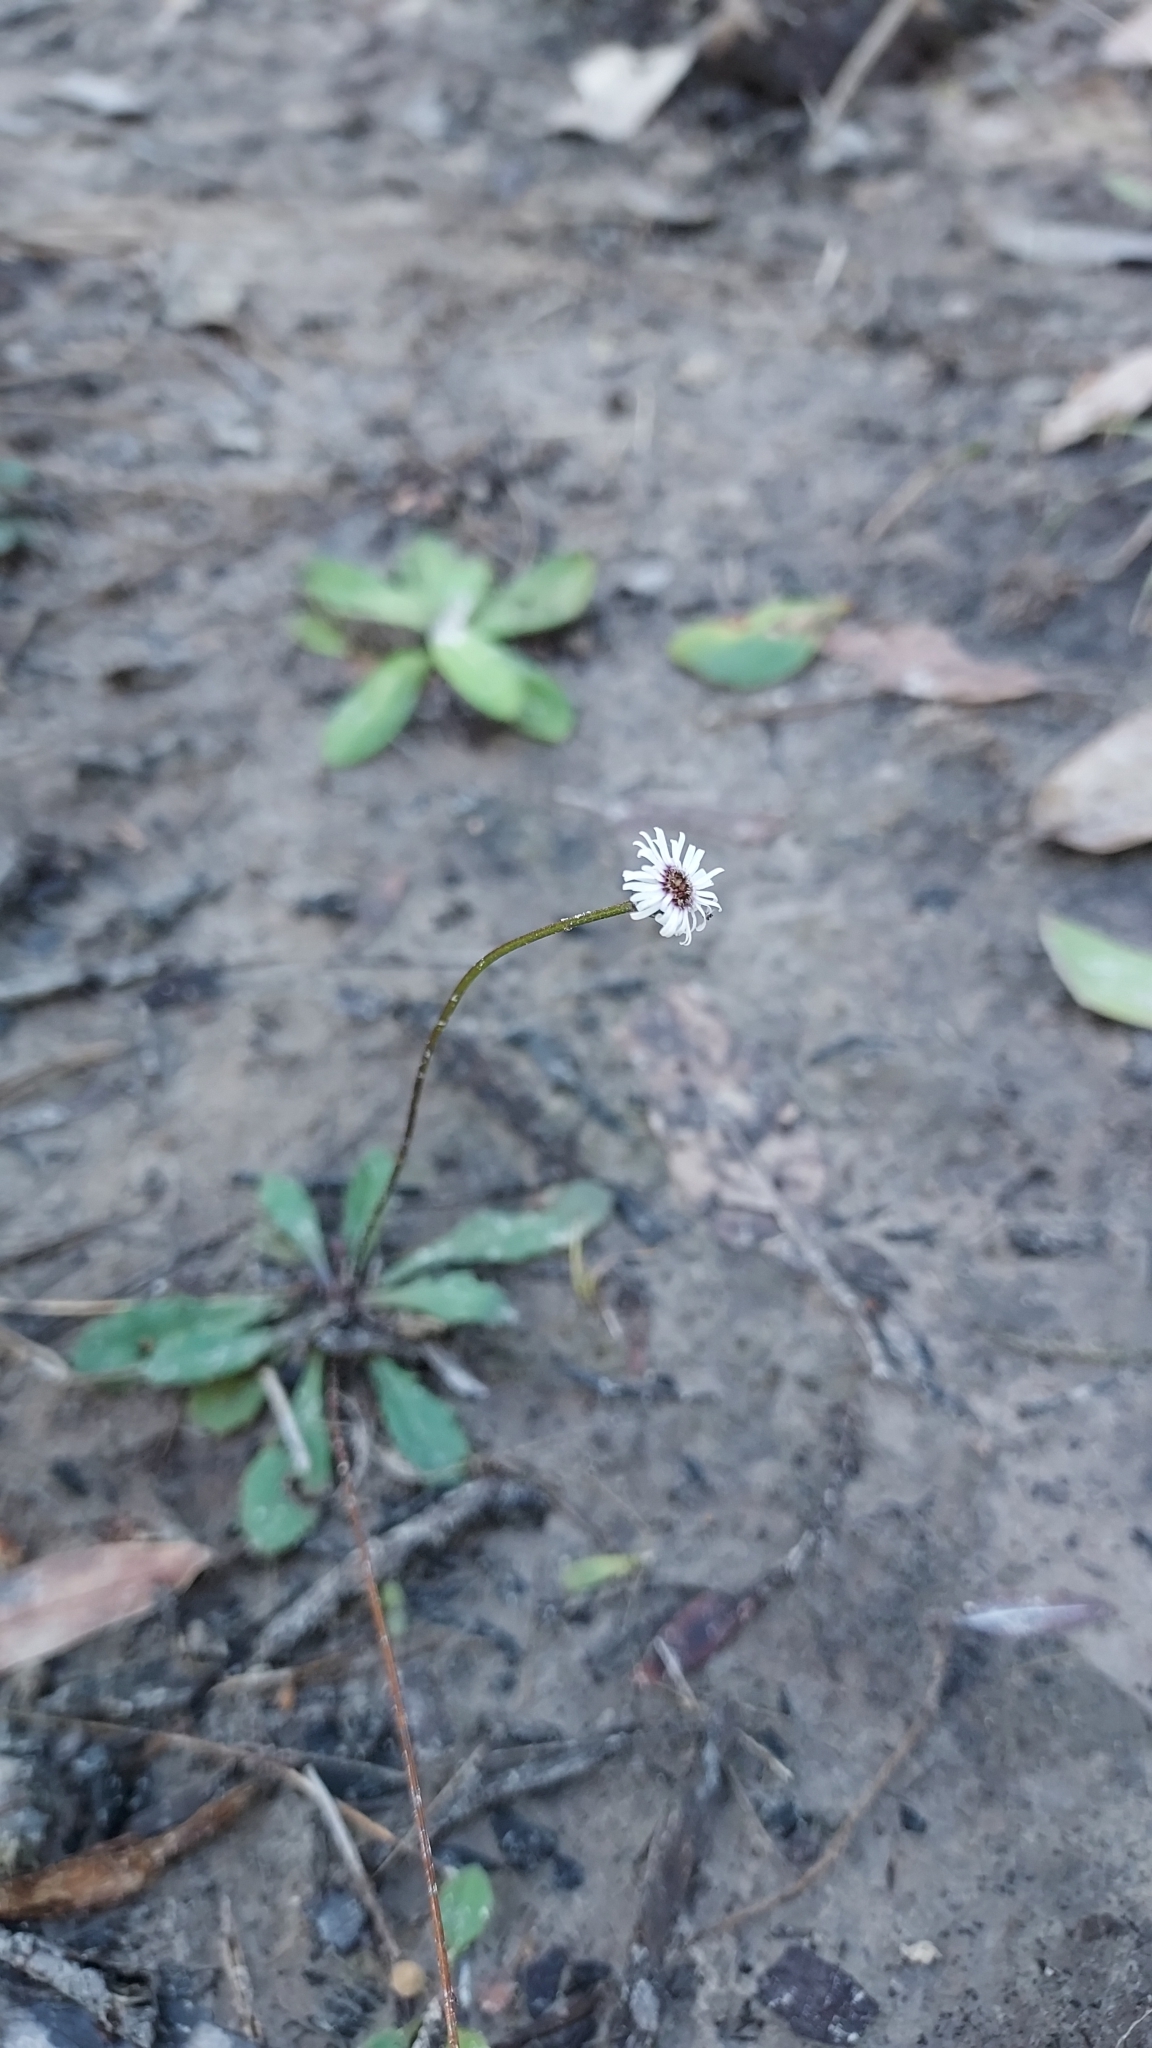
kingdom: Plantae
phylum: Tracheophyta
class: Magnoliopsida
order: Asterales
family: Asteraceae
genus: Lagenophora
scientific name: Lagenophora sublyrata ter
